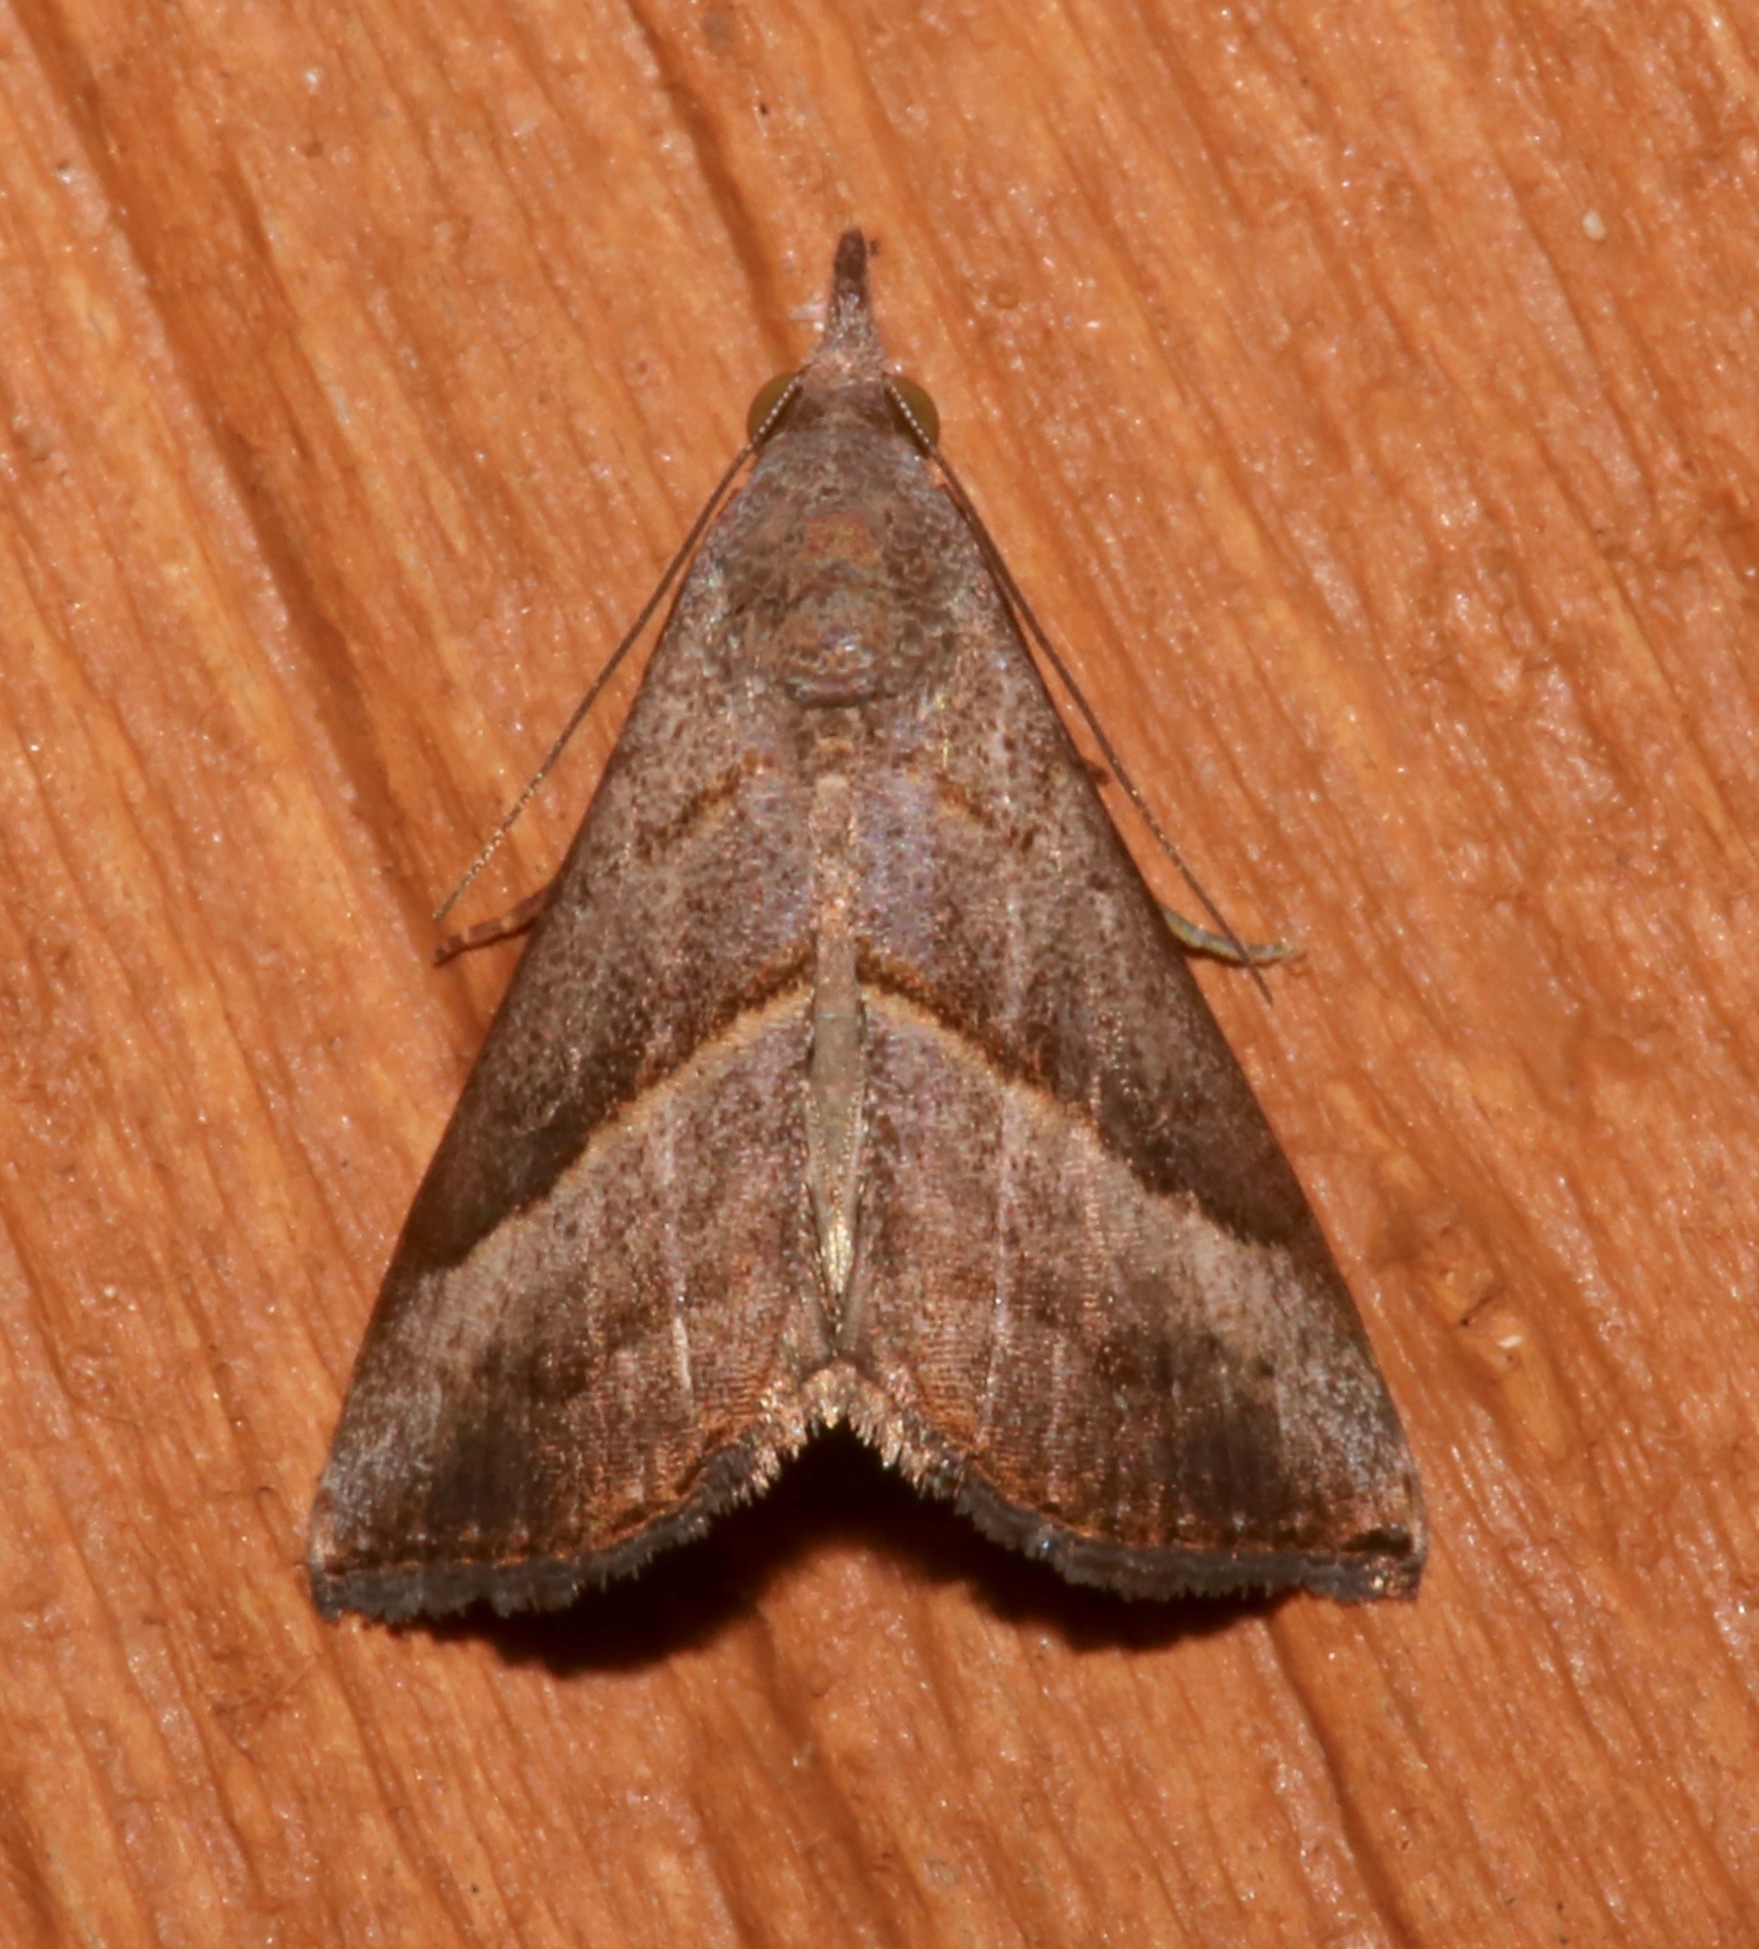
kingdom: Animalia
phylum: Arthropoda
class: Insecta
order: Lepidoptera
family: Erebidae
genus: Hypena
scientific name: Hypena degesalis
